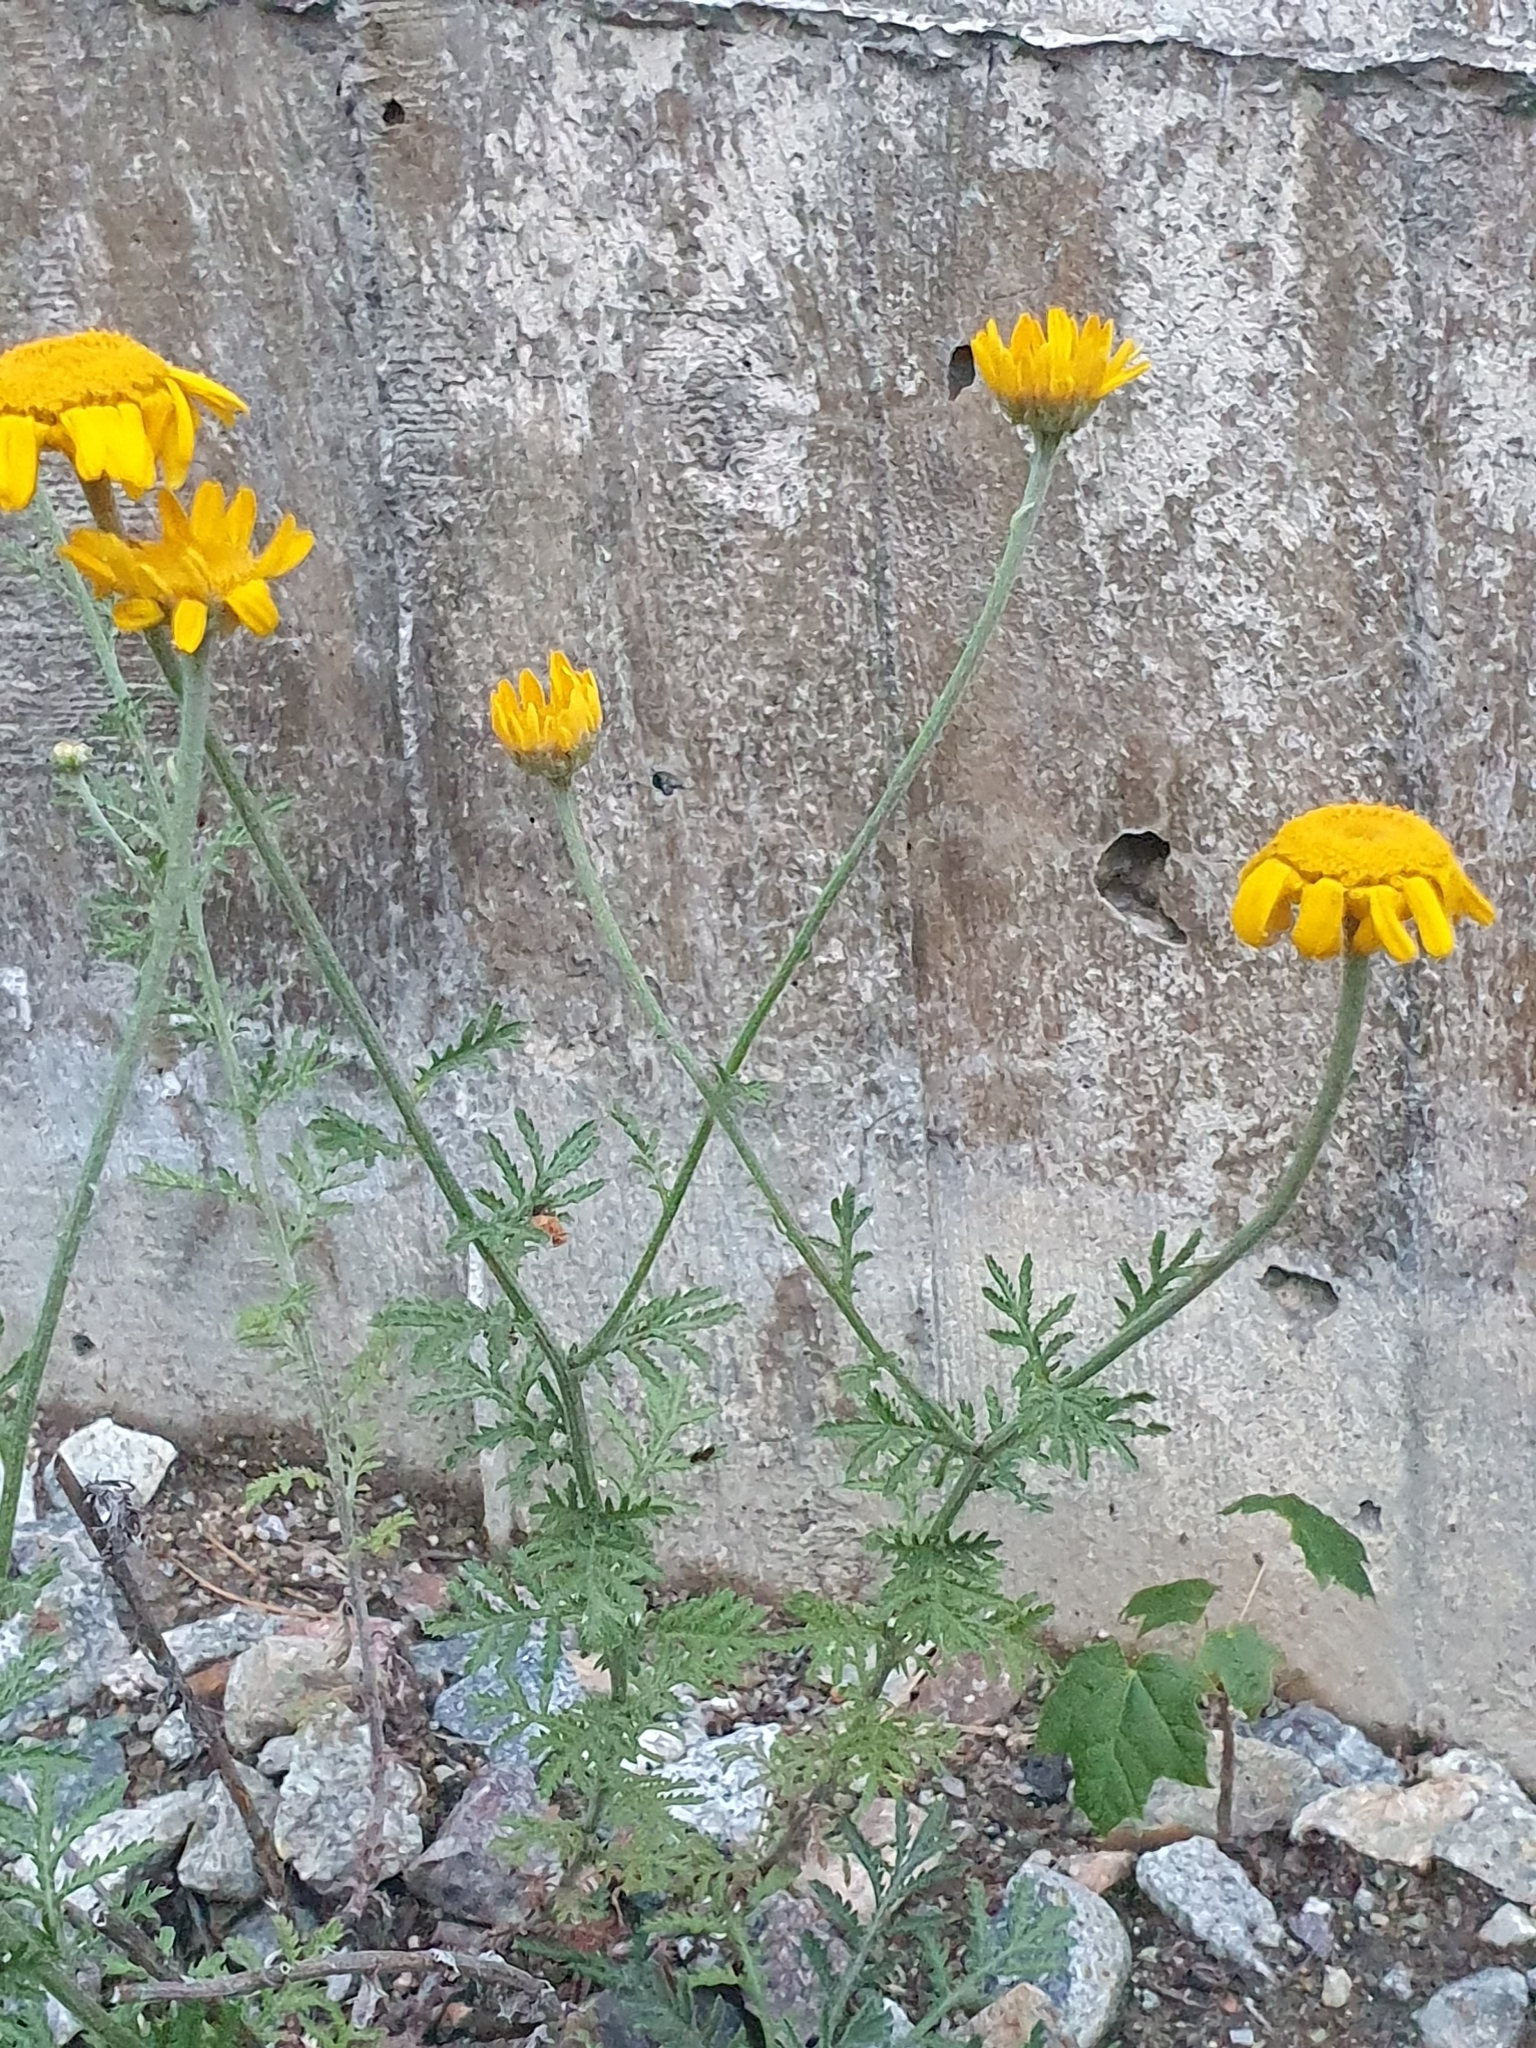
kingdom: Plantae
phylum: Tracheophyta
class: Magnoliopsida
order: Asterales
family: Asteraceae
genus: Cota
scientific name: Cota tinctoria
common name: Golden chamomile
